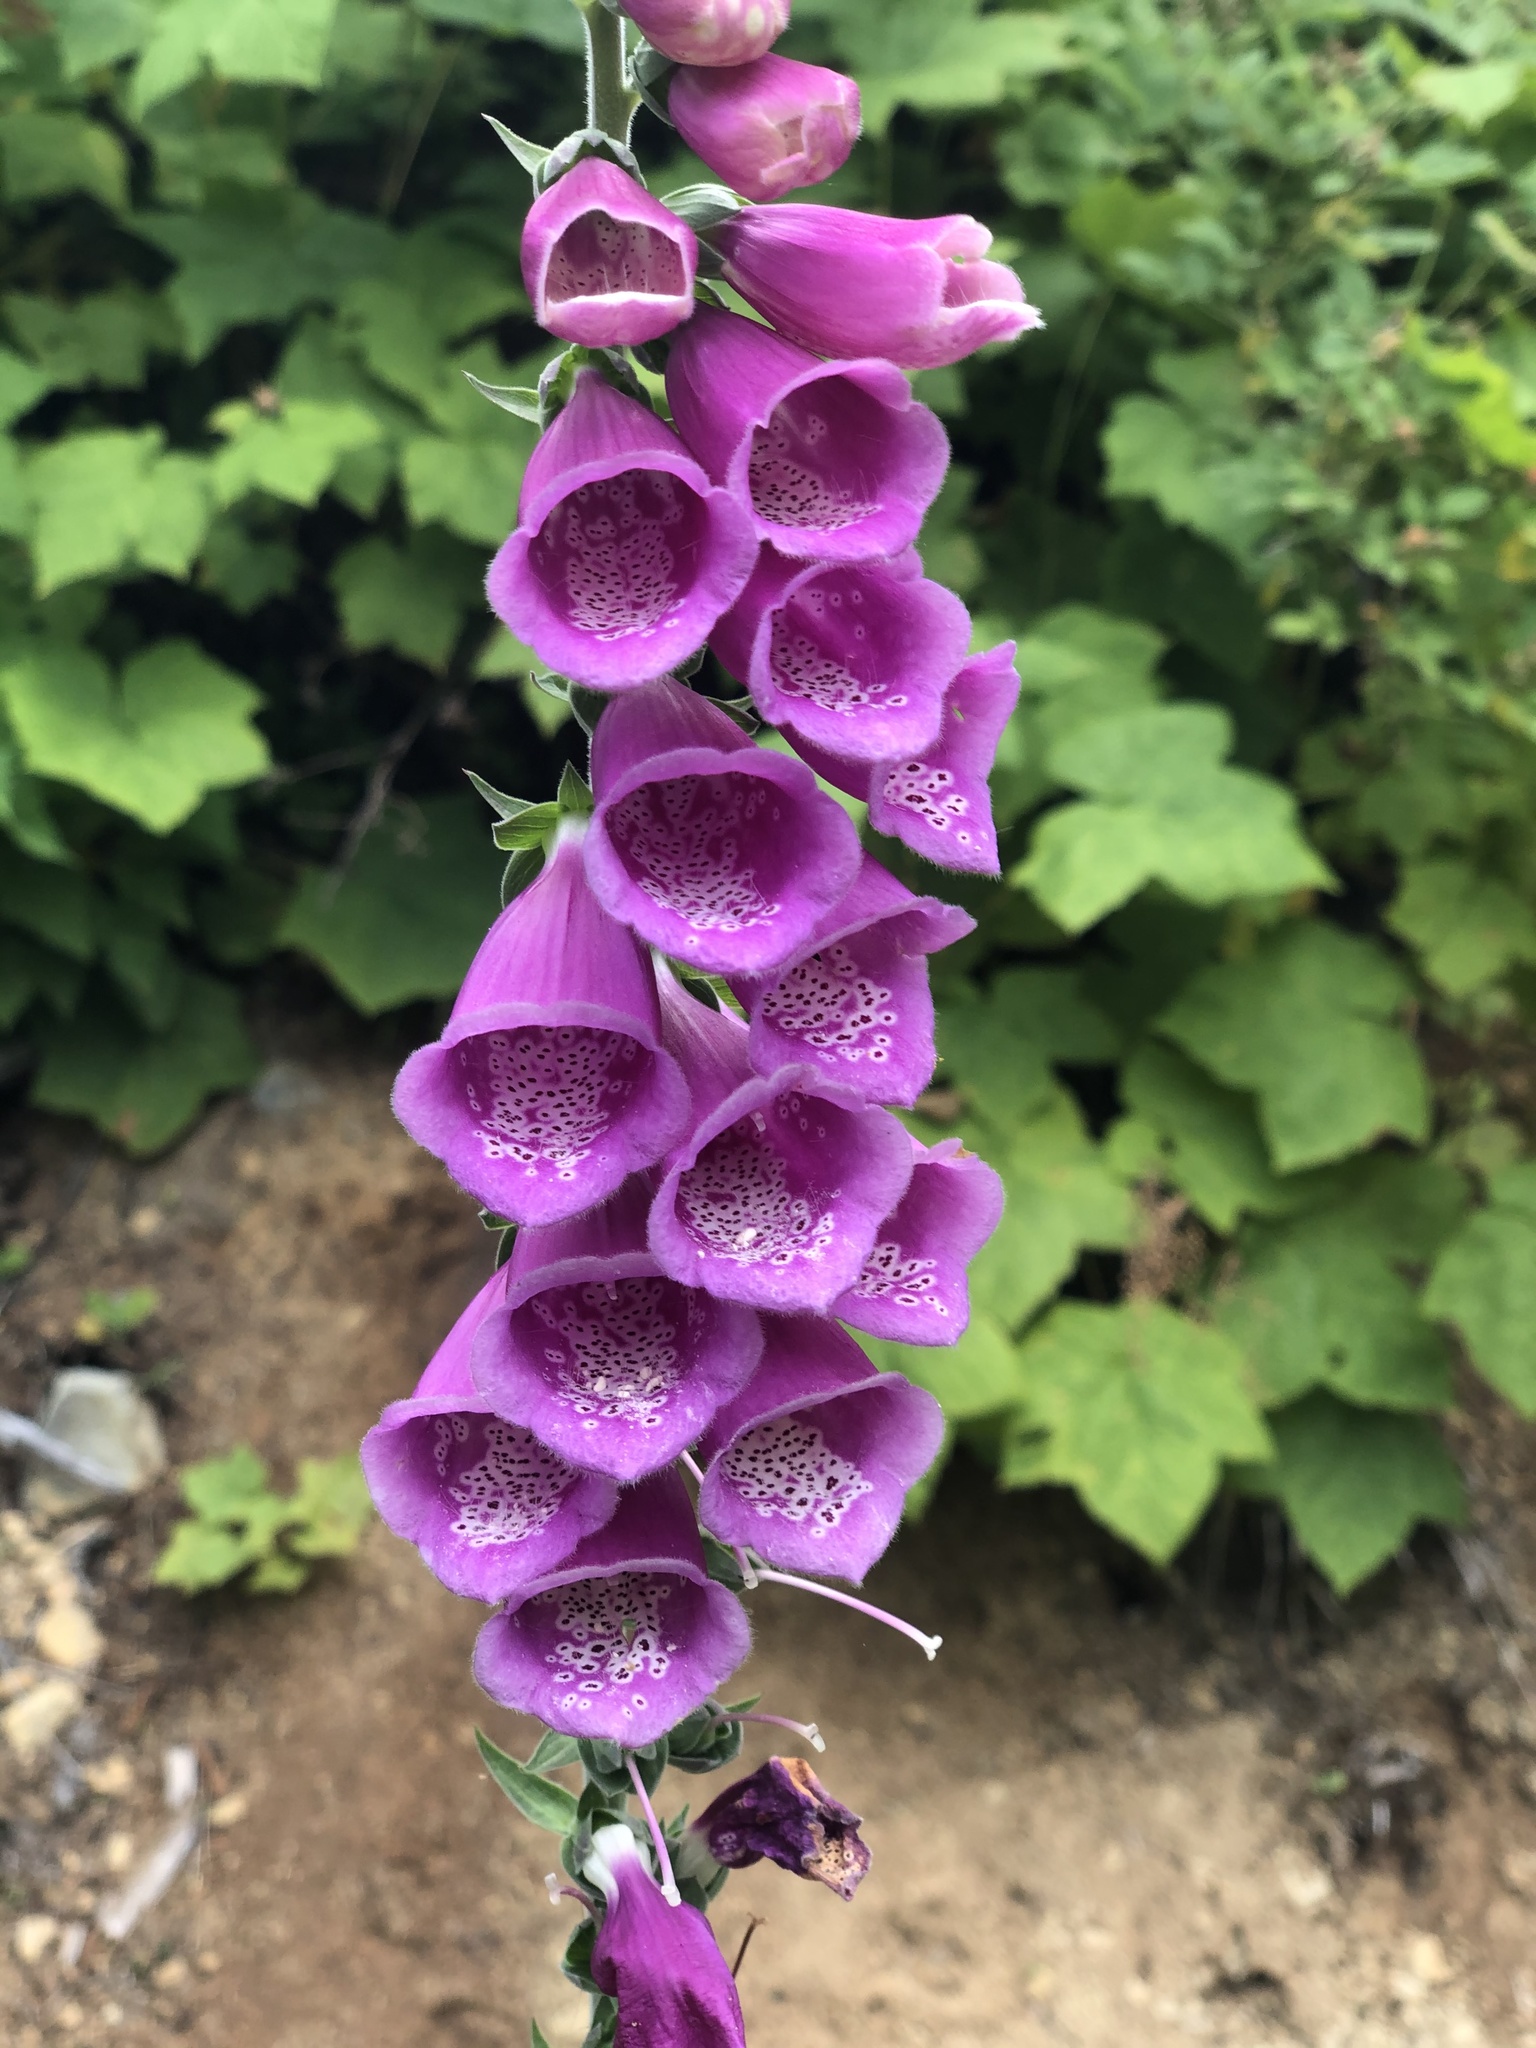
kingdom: Plantae
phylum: Tracheophyta
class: Magnoliopsida
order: Lamiales
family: Plantaginaceae
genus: Digitalis
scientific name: Digitalis purpurea
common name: Foxglove
